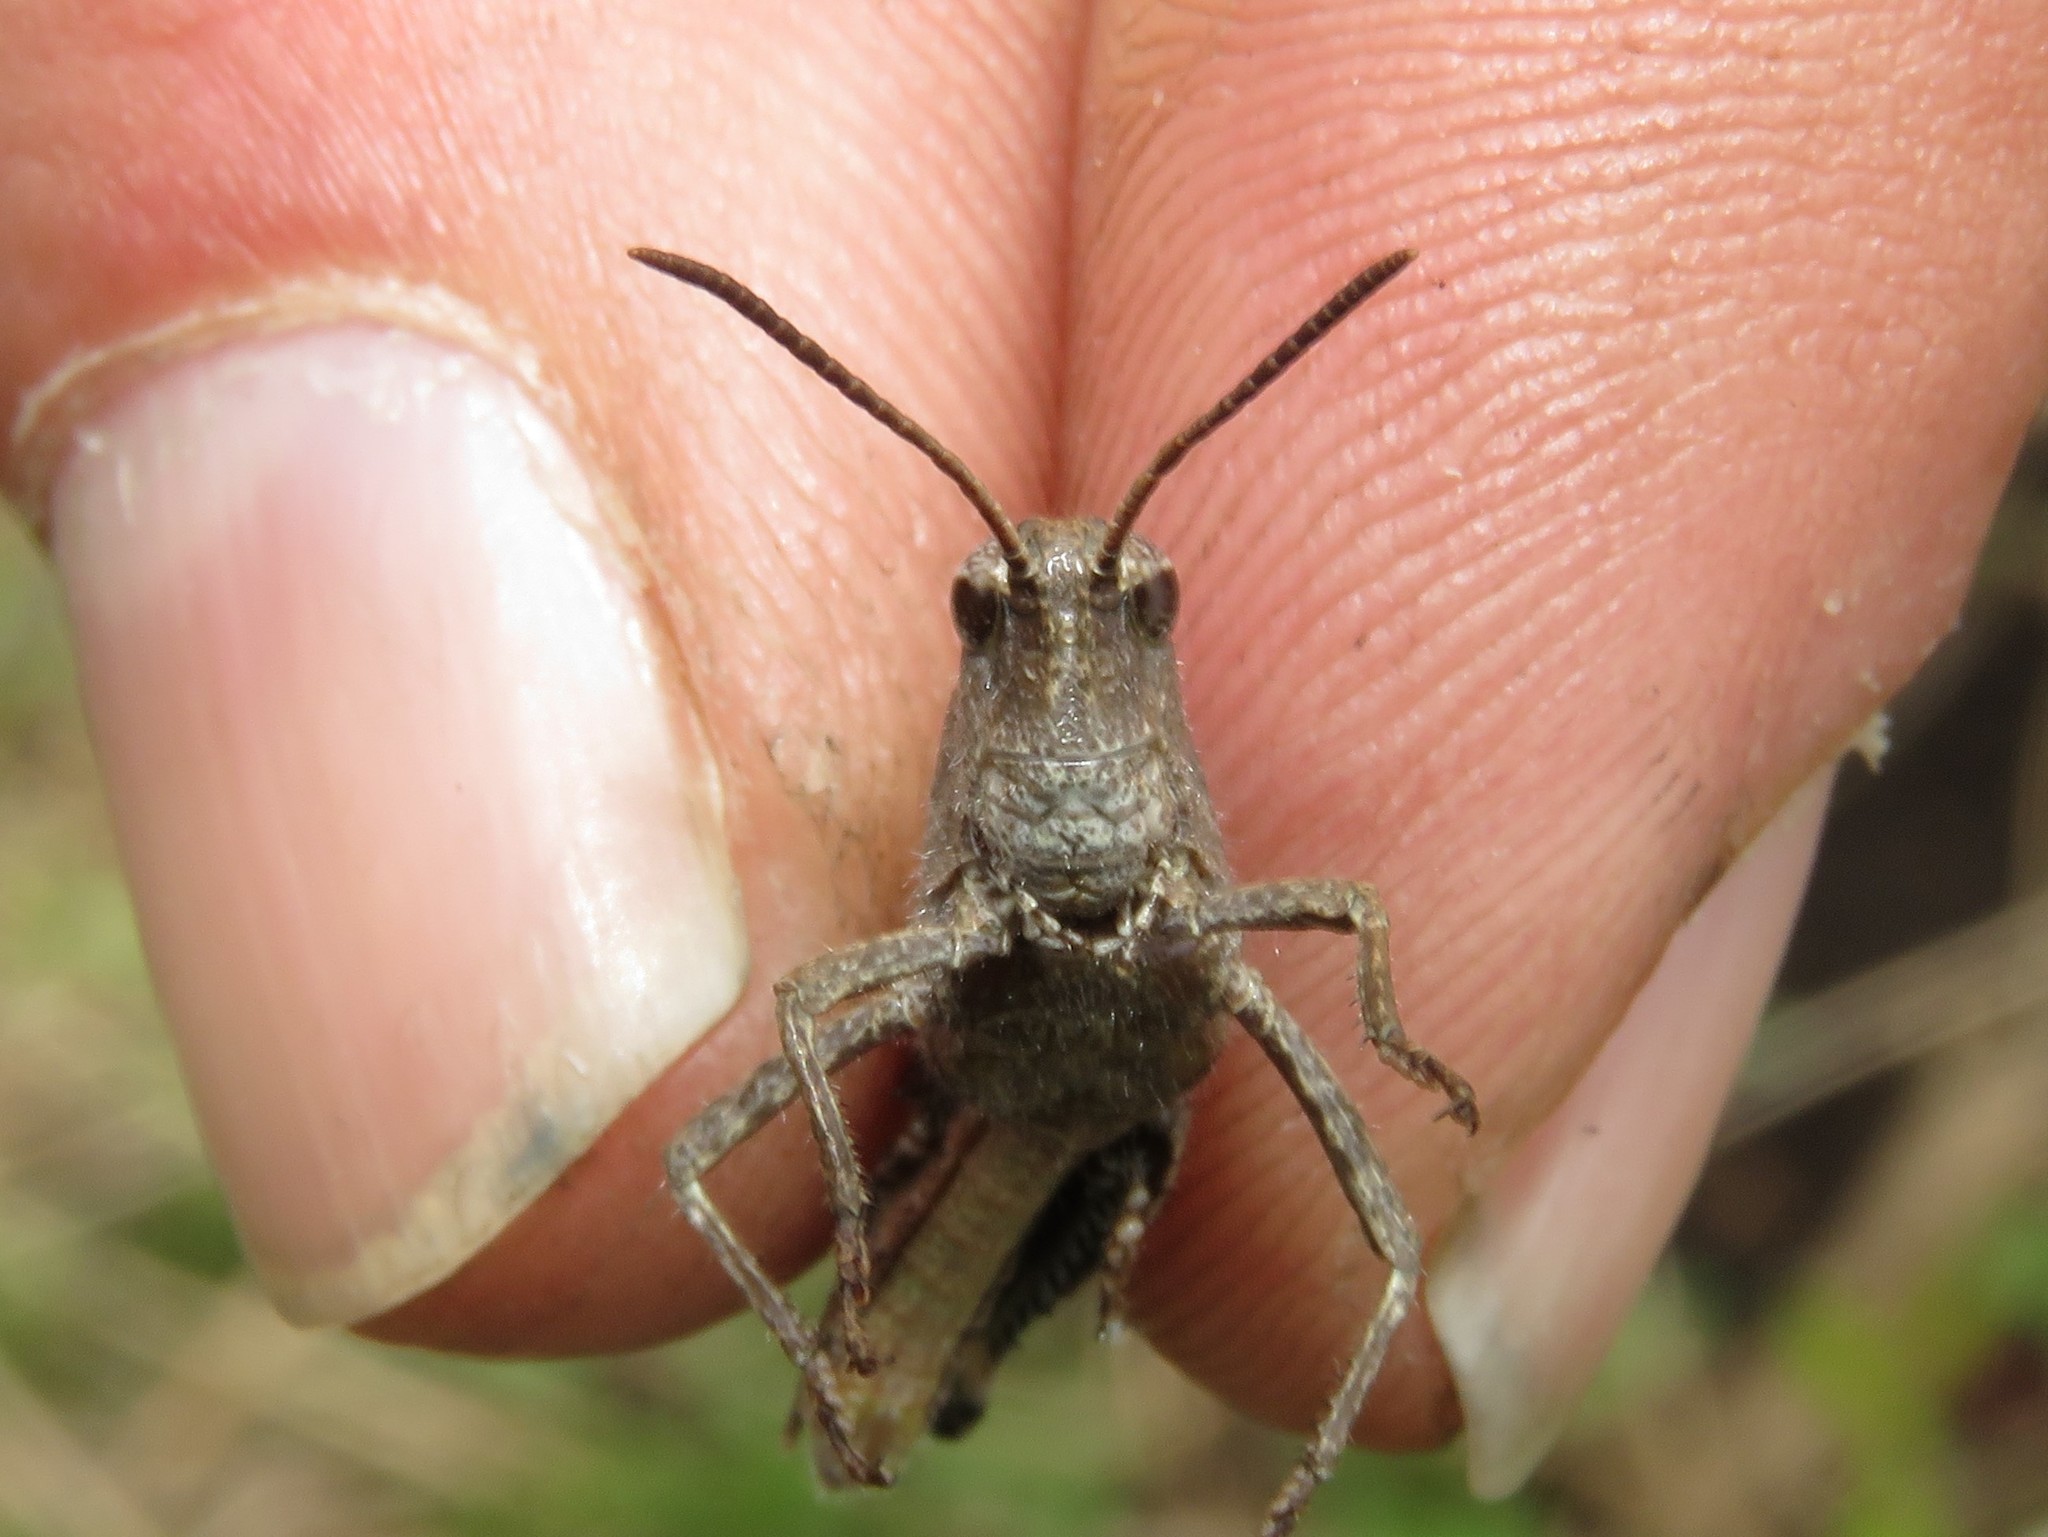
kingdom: Animalia
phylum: Arthropoda
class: Insecta
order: Orthoptera
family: Acrididae
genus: Chortophaga
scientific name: Chortophaga viridifasciata
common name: Green-striped grasshopper
